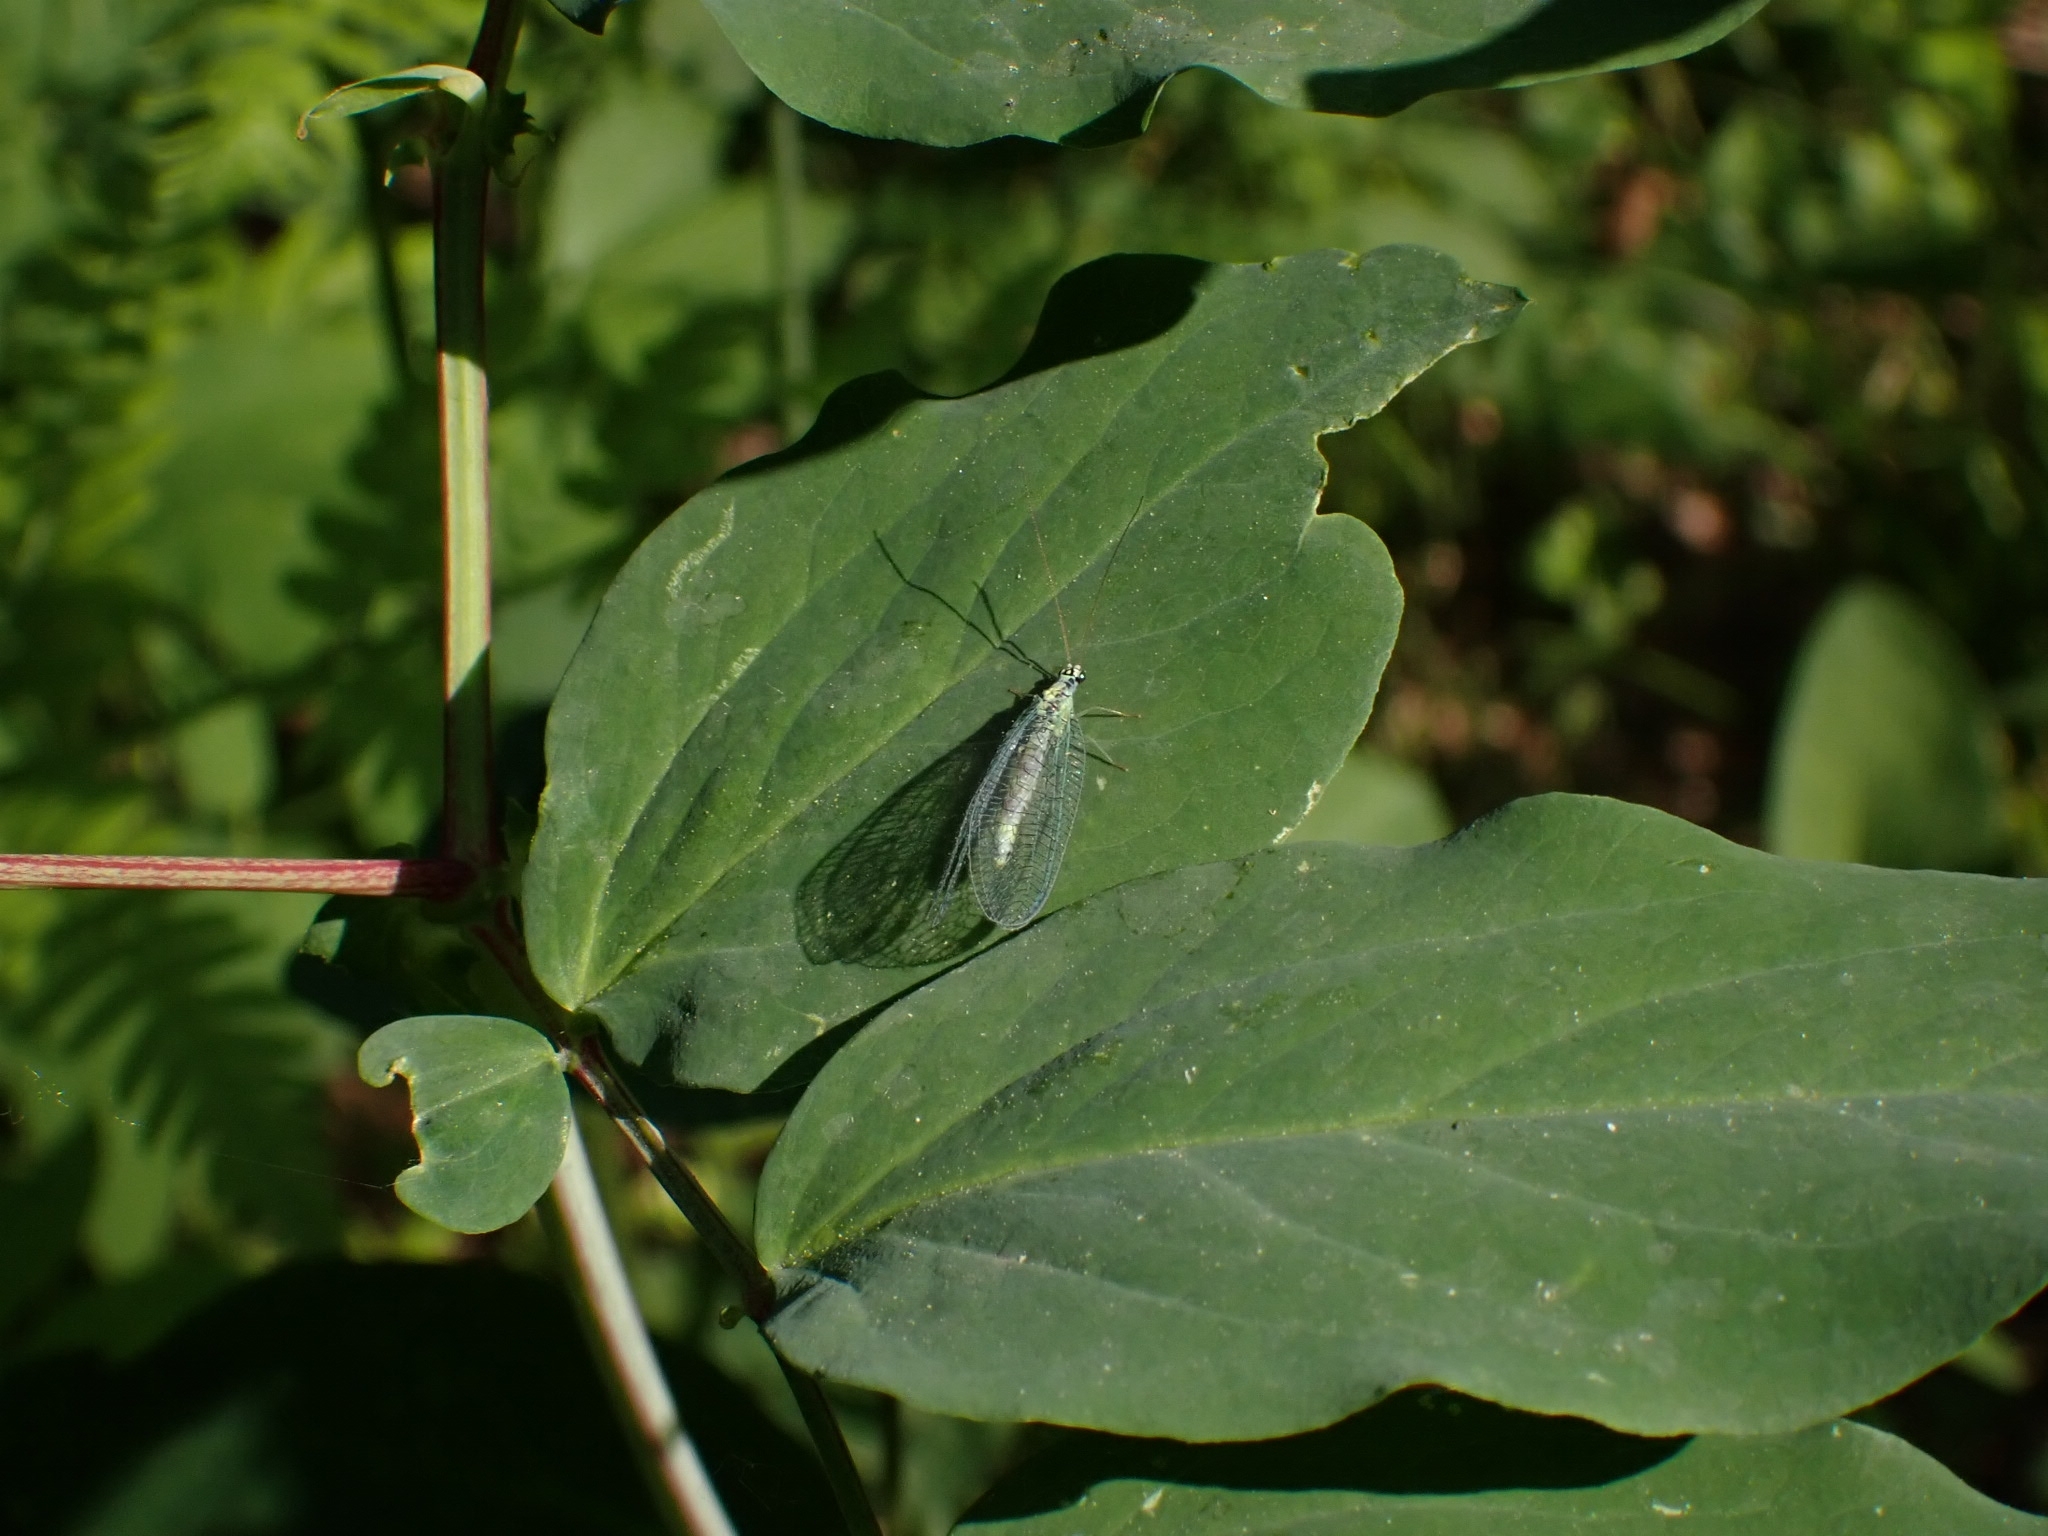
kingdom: Animalia
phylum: Arthropoda
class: Insecta
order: Neuroptera
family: Chrysopidae
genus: Chrysopa
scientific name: Chrysopa perla
